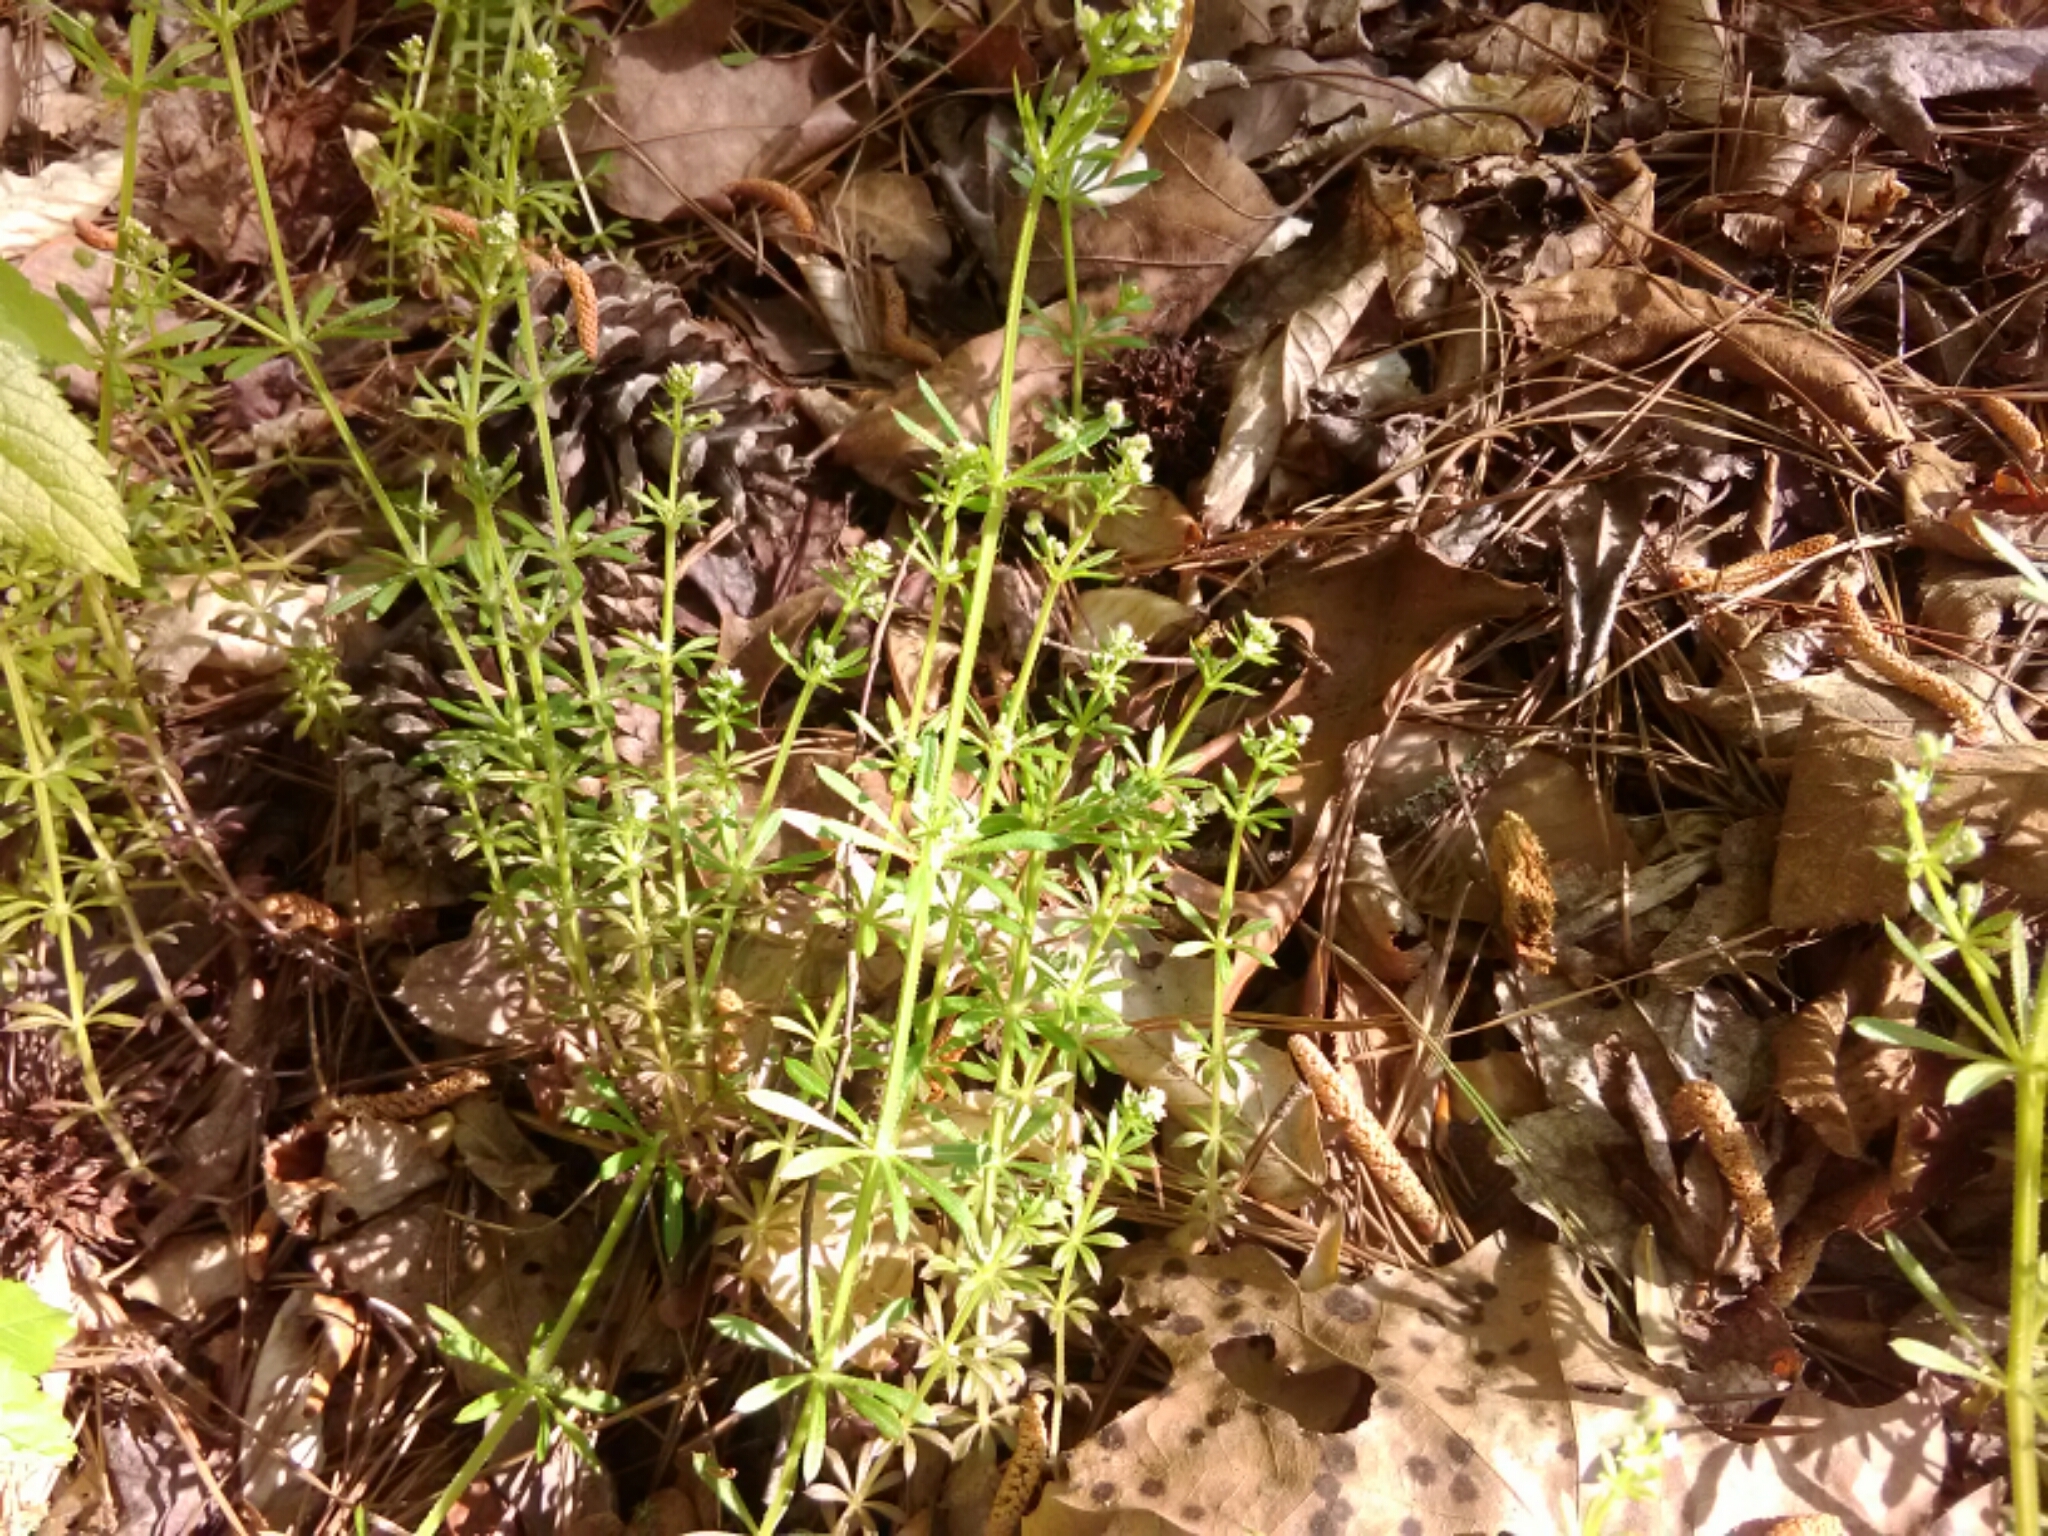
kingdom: Plantae
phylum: Tracheophyta
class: Magnoliopsida
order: Gentianales
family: Rubiaceae
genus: Galium
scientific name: Galium aparine
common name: Cleavers
